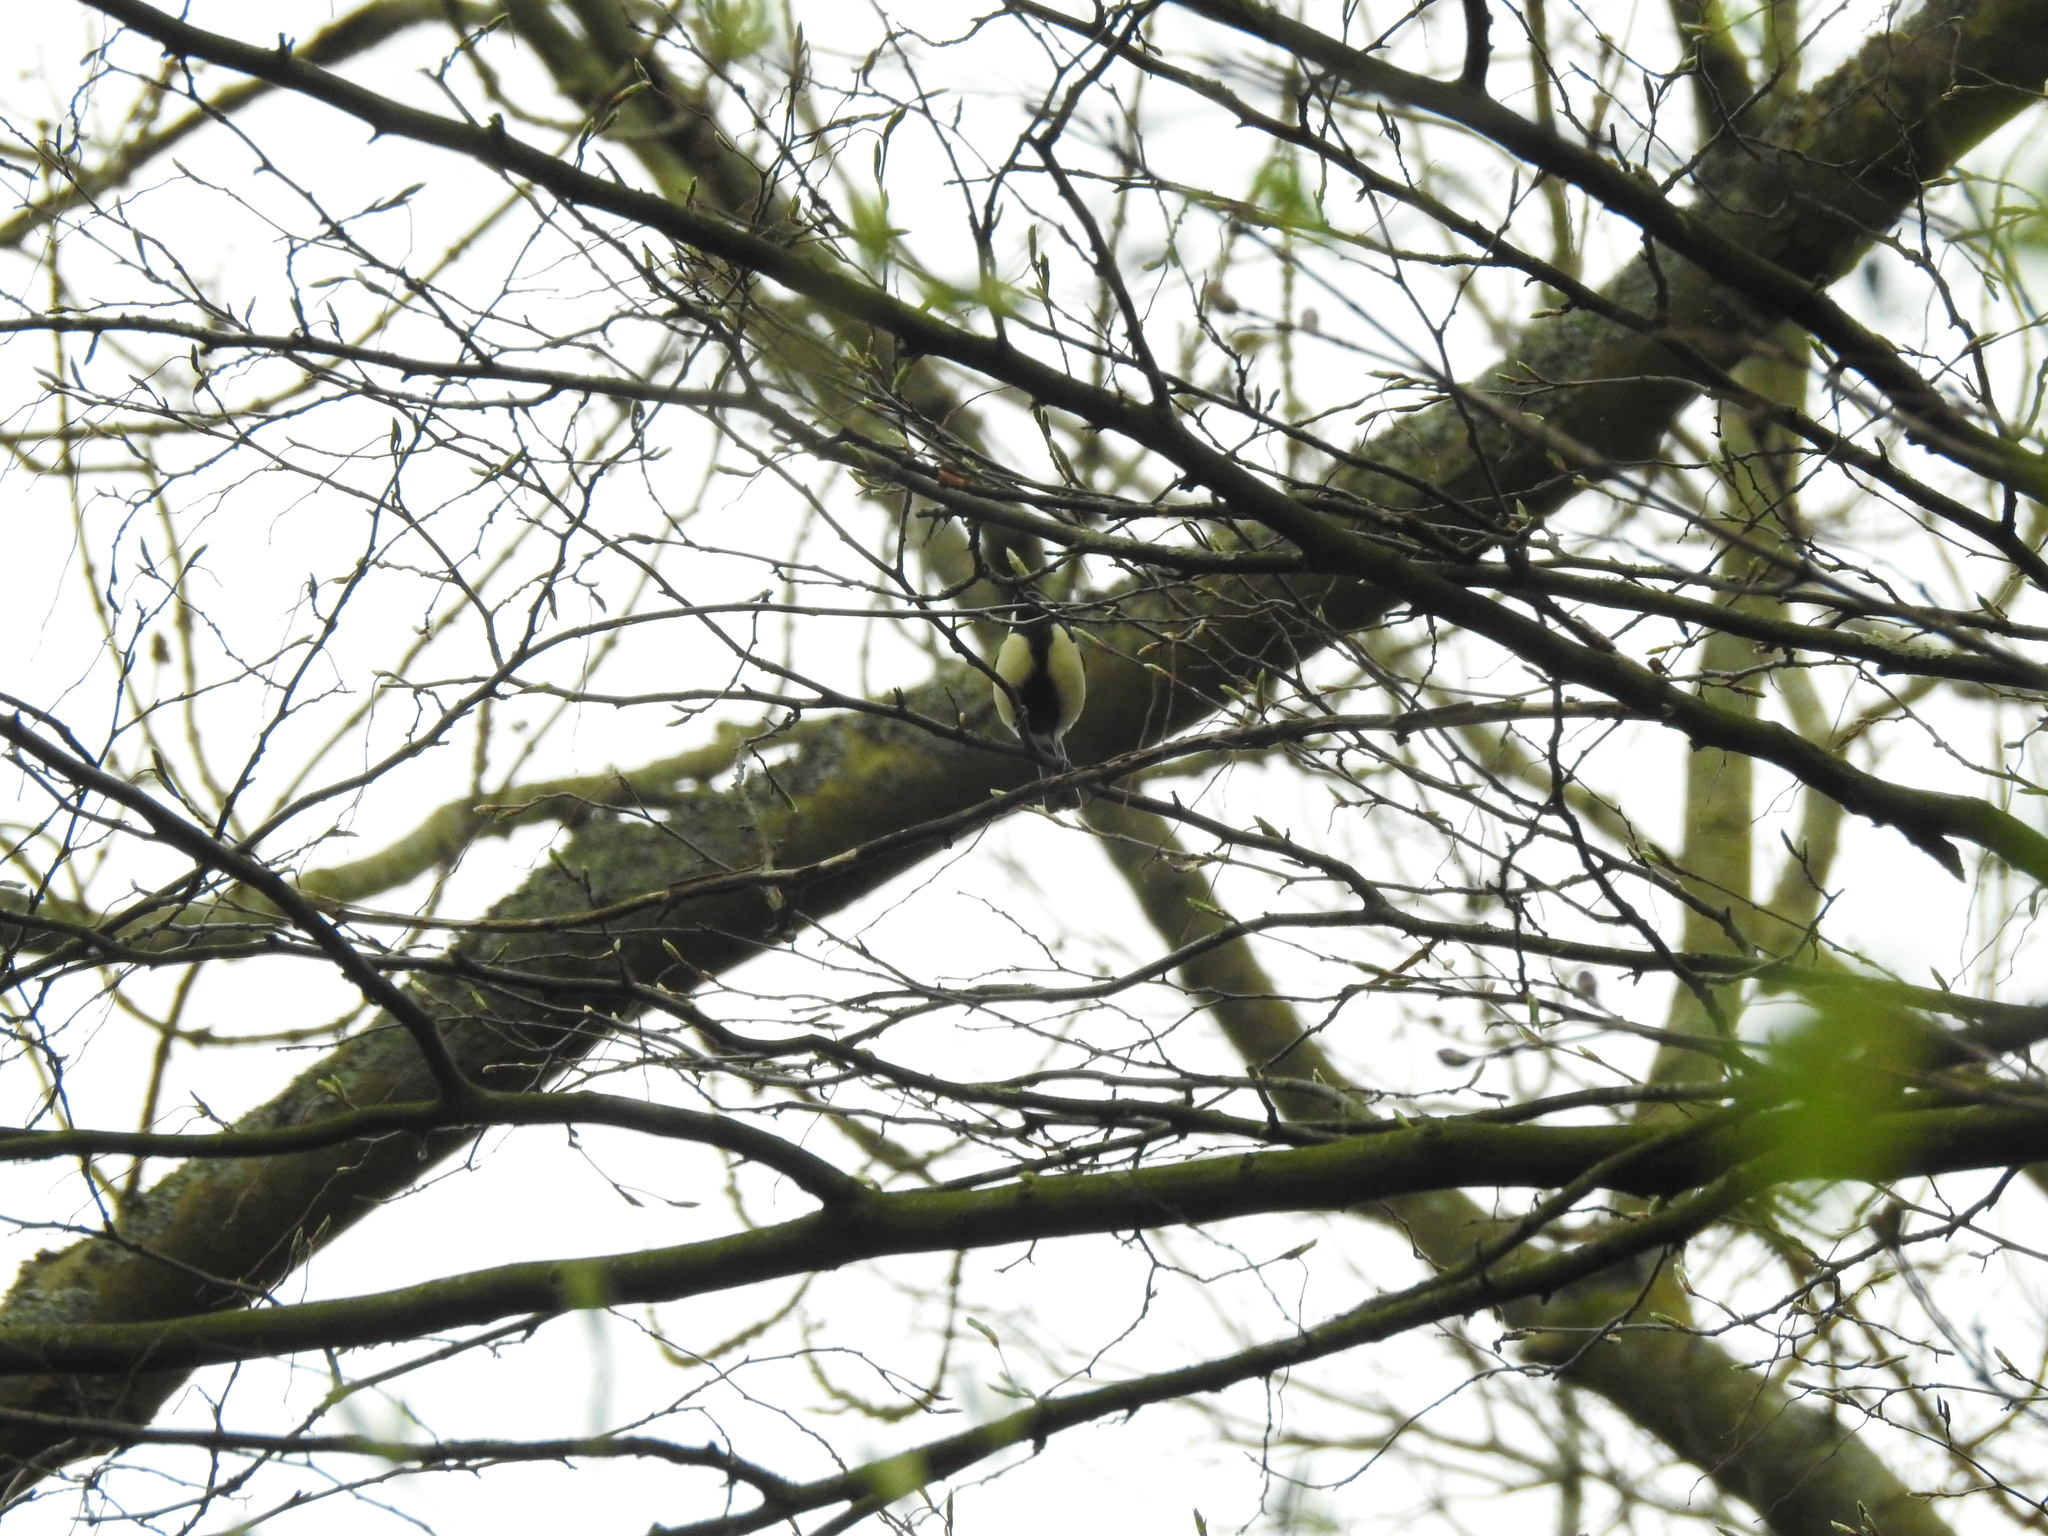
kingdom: Animalia
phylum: Chordata
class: Aves
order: Passeriformes
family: Paridae
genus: Parus
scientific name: Parus major
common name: Great tit
